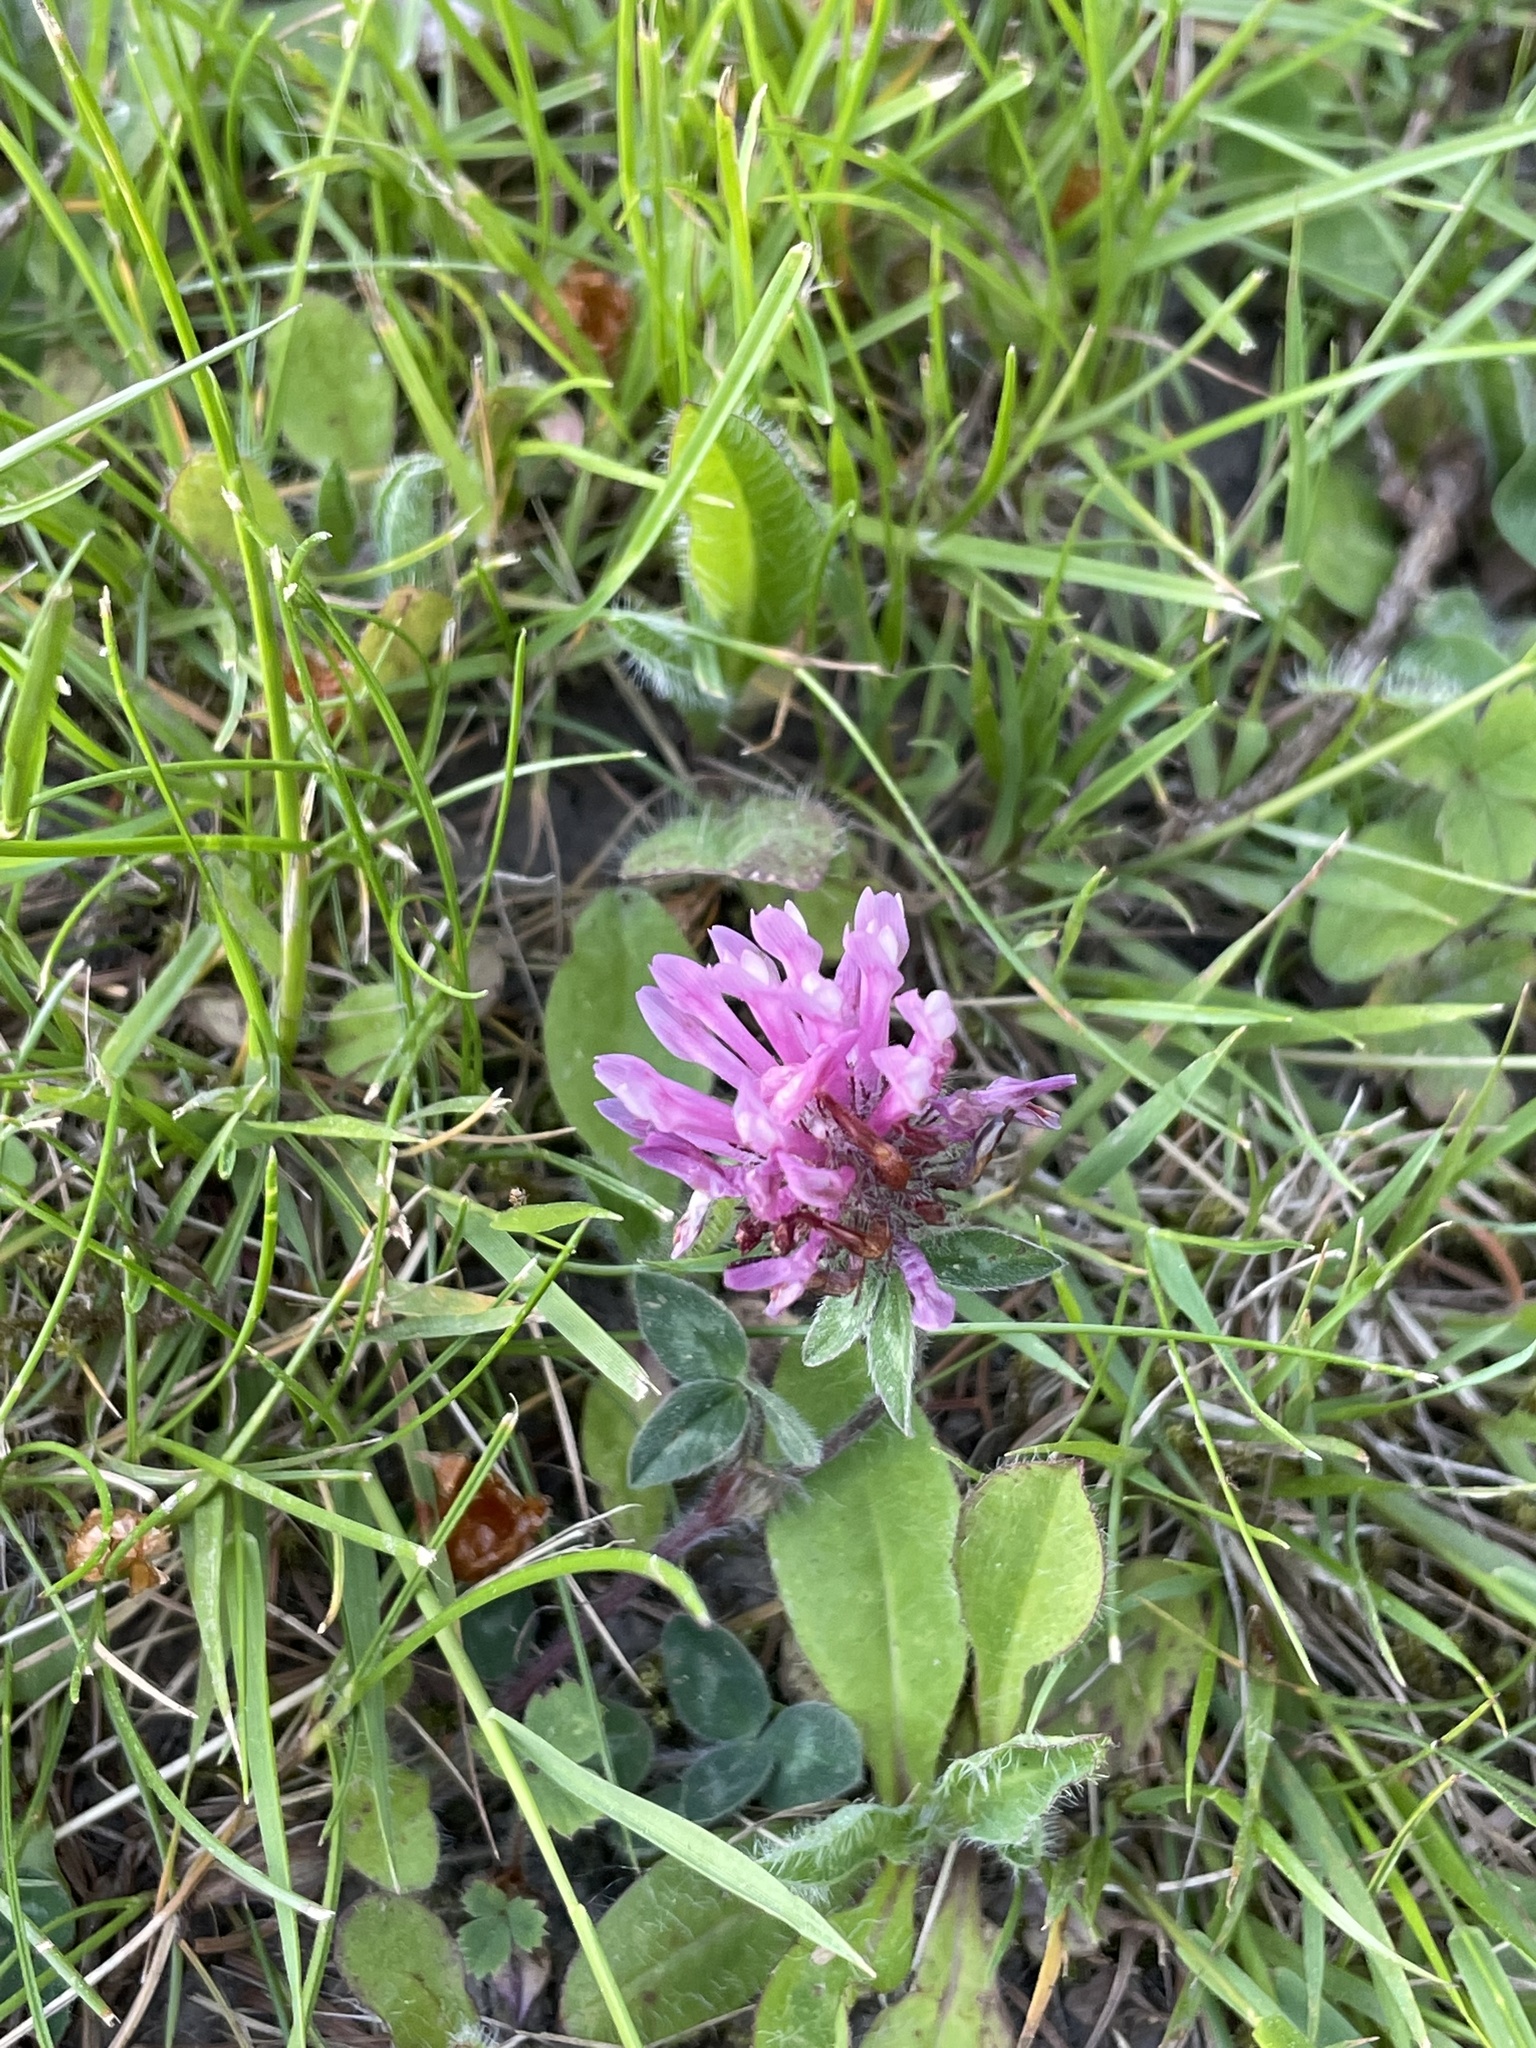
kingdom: Plantae
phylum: Tracheophyta
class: Magnoliopsida
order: Fabales
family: Fabaceae
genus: Trifolium
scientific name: Trifolium pratense
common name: Red clover
